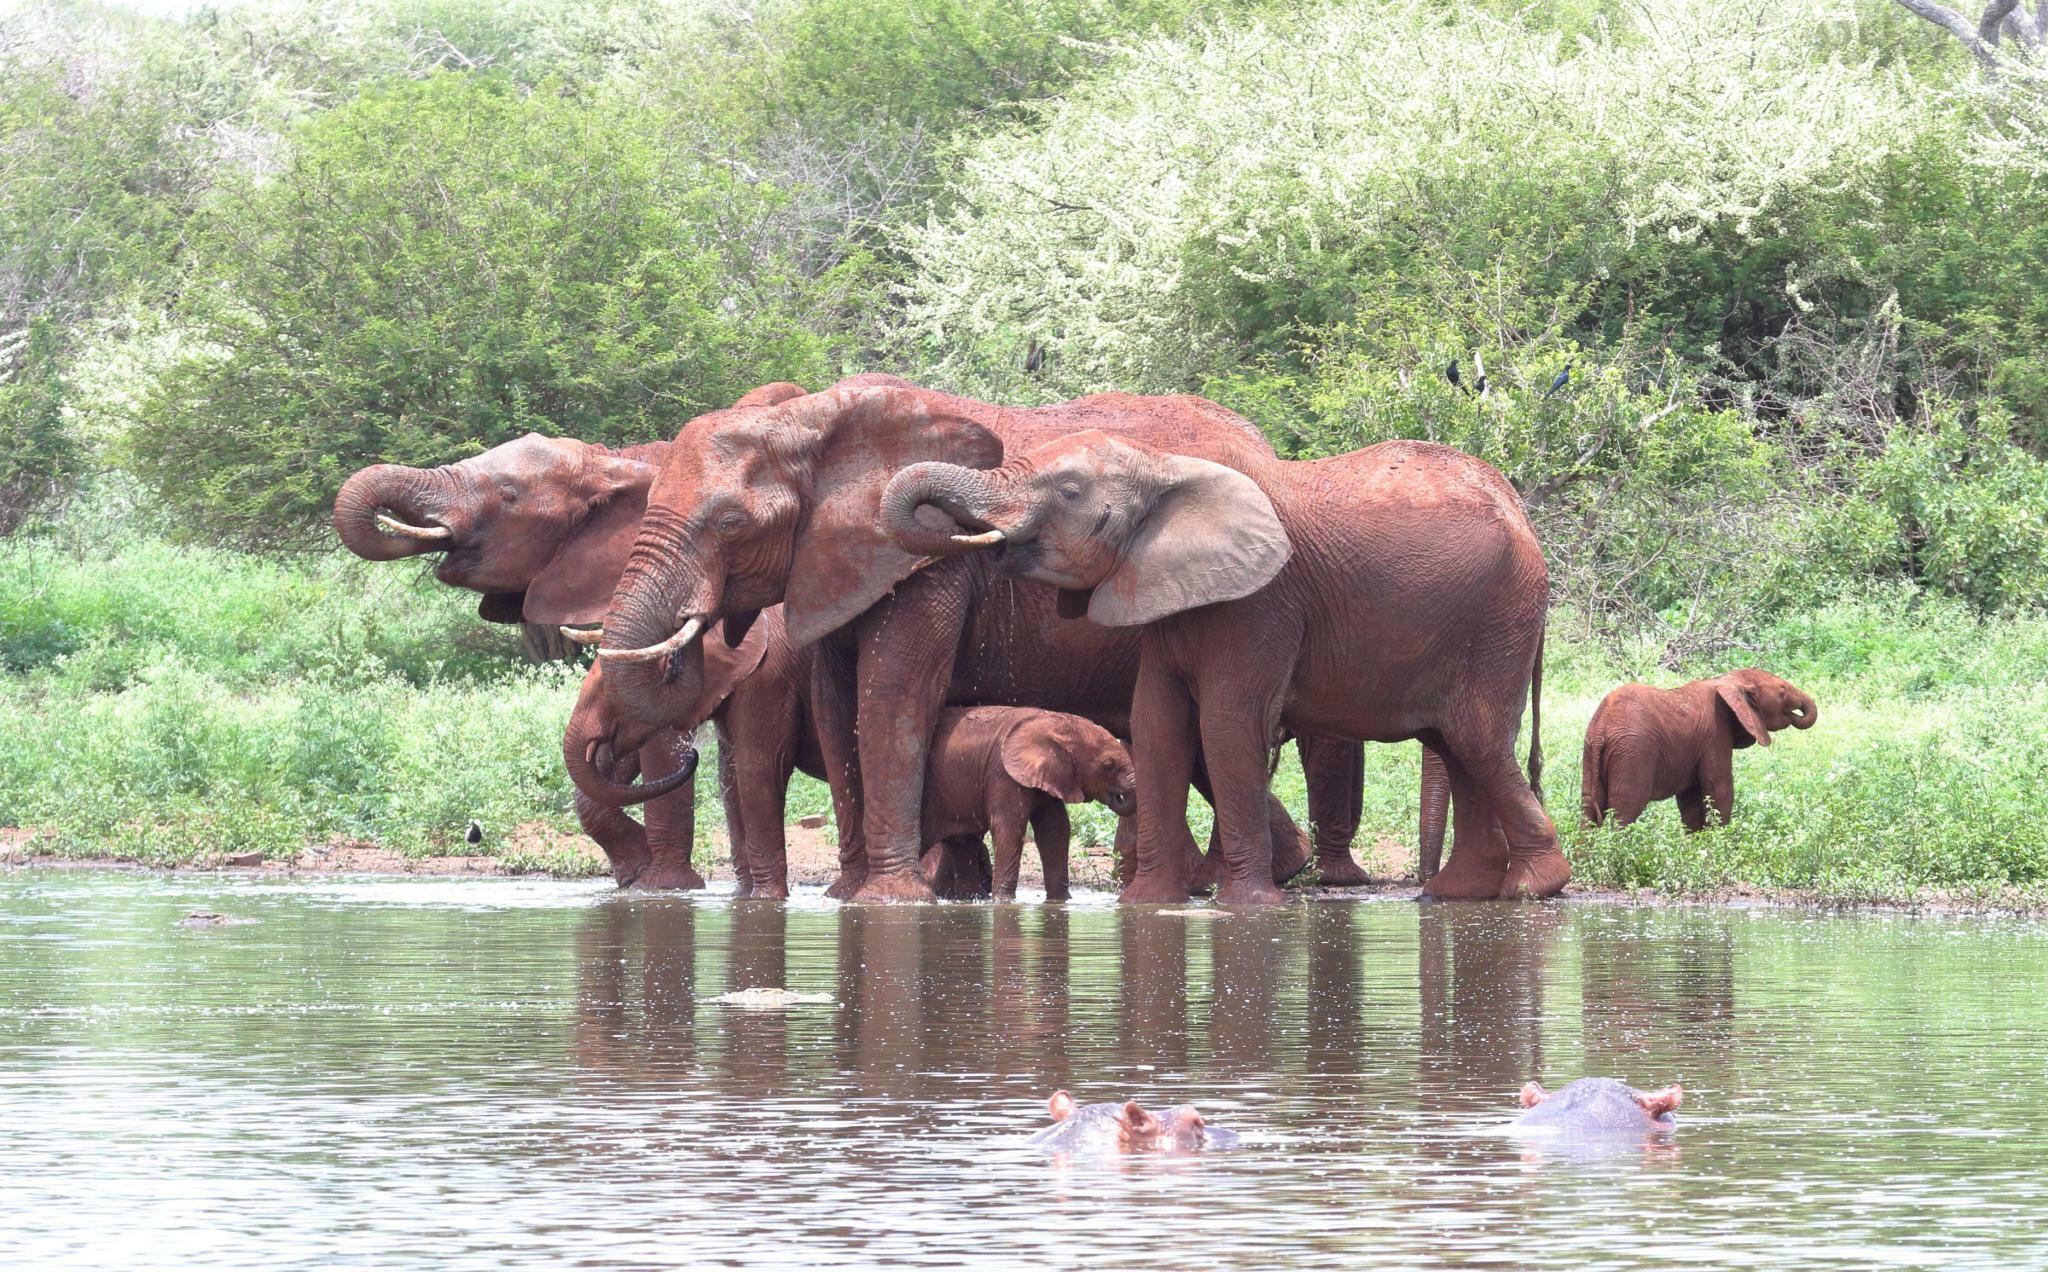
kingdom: Animalia
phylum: Chordata
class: Mammalia
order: Proboscidea
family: Elephantidae
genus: Loxodonta
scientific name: Loxodonta africana
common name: African elephant
